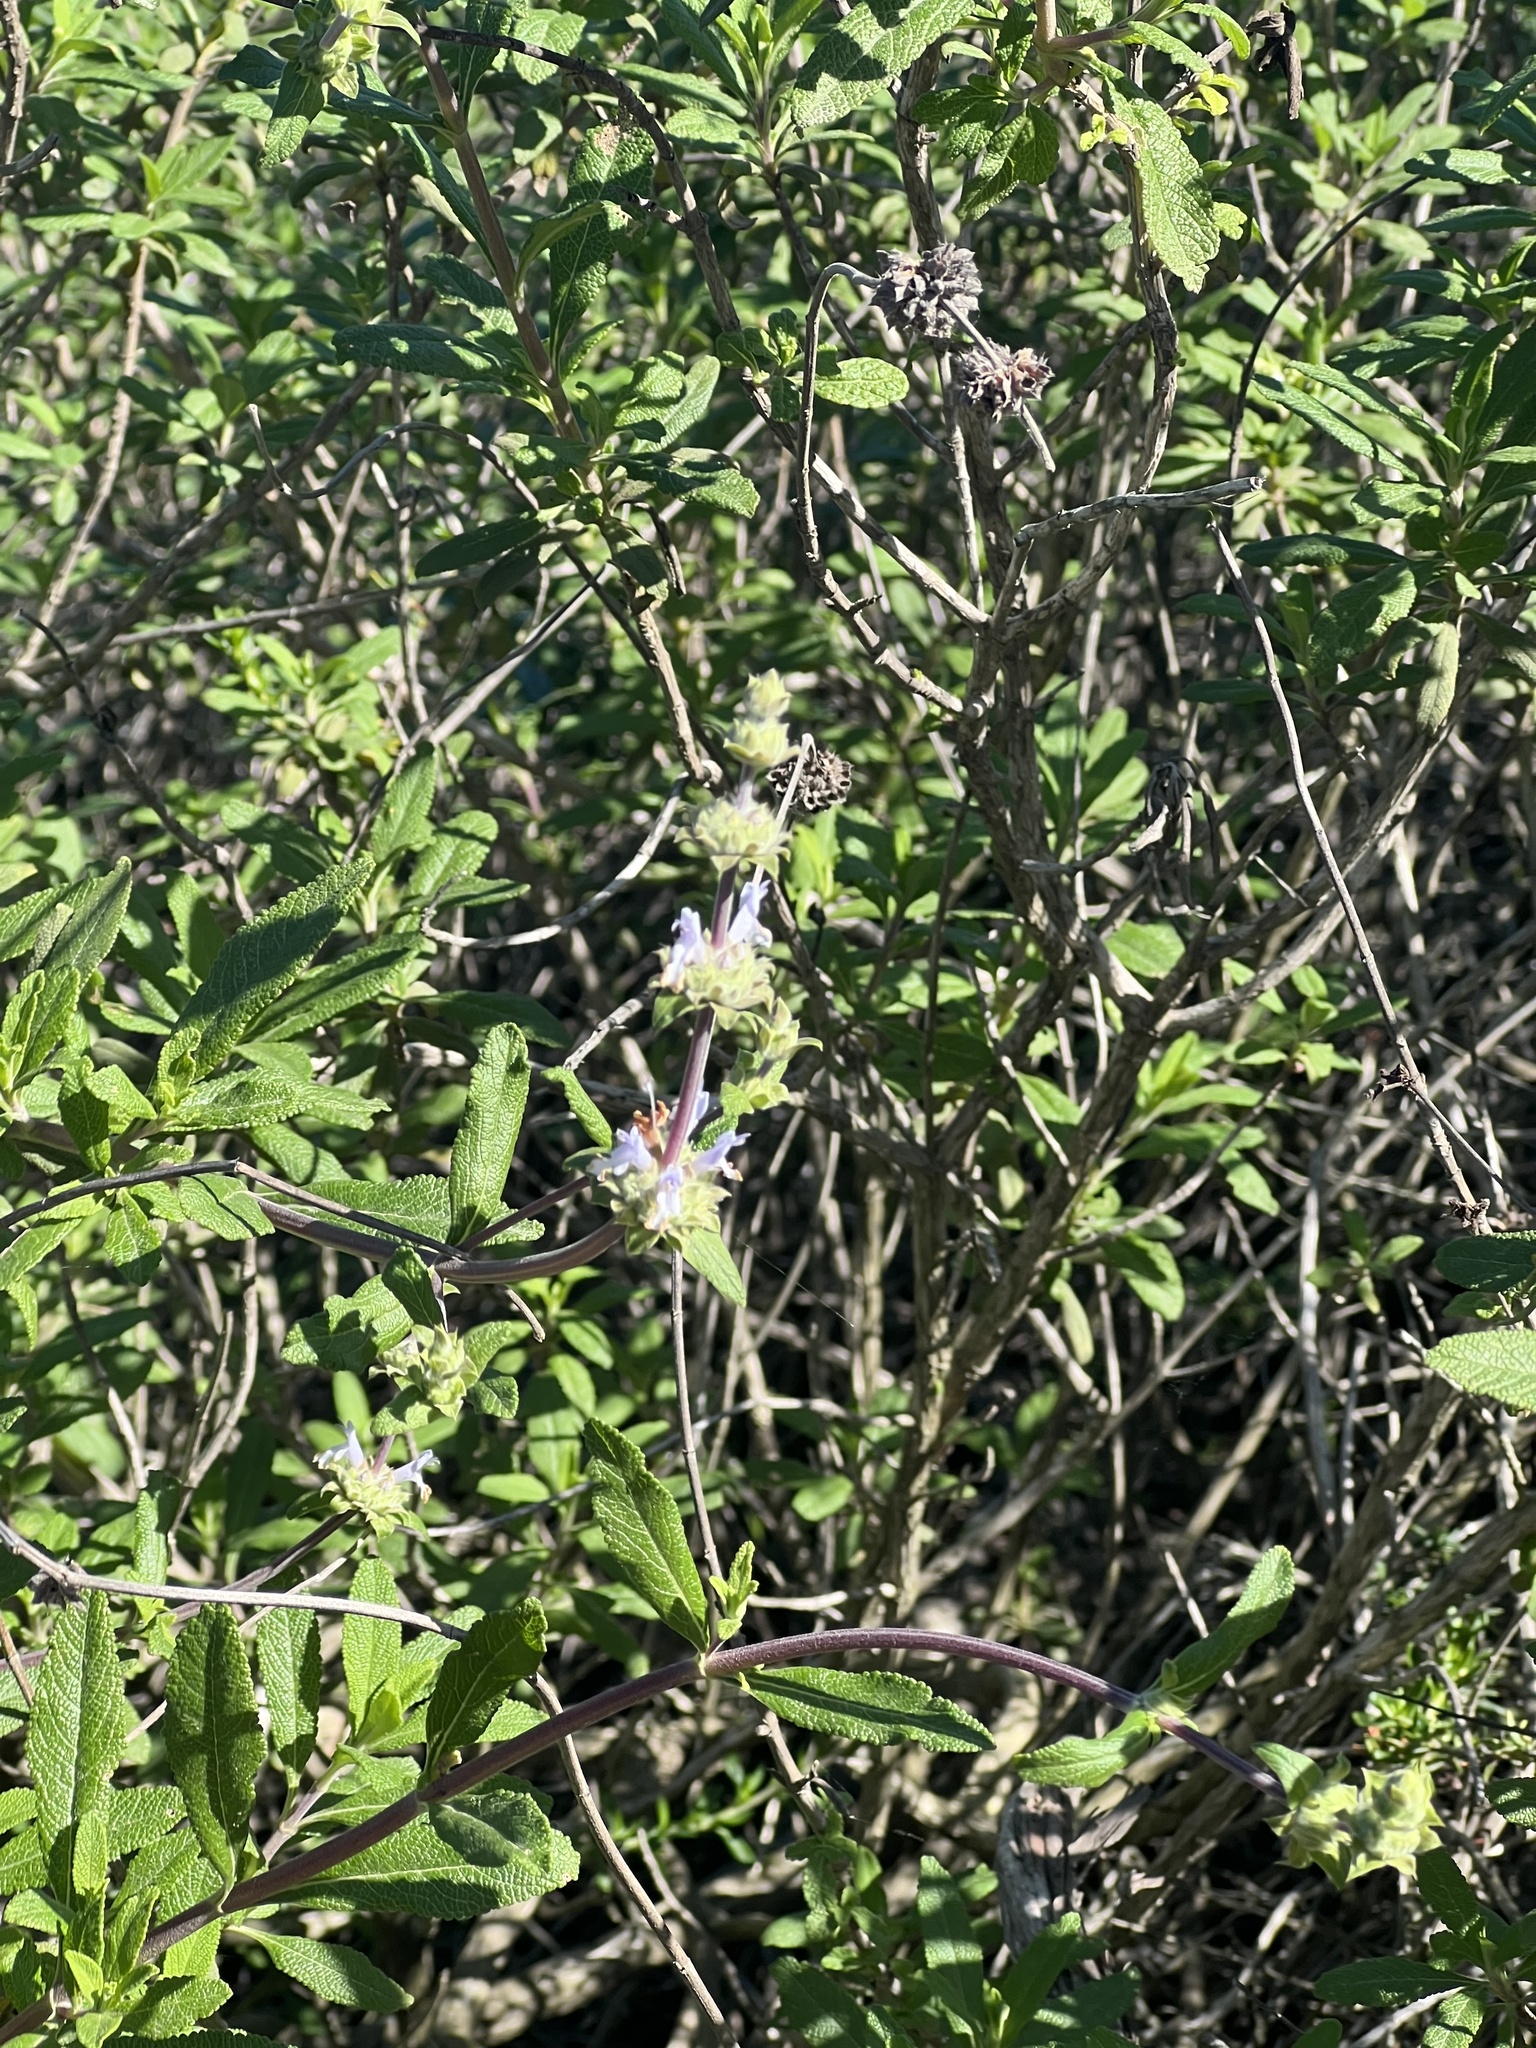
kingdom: Plantae
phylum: Tracheophyta
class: Magnoliopsida
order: Lamiales
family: Lamiaceae
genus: Salvia
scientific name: Salvia mellifera
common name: Black sage
